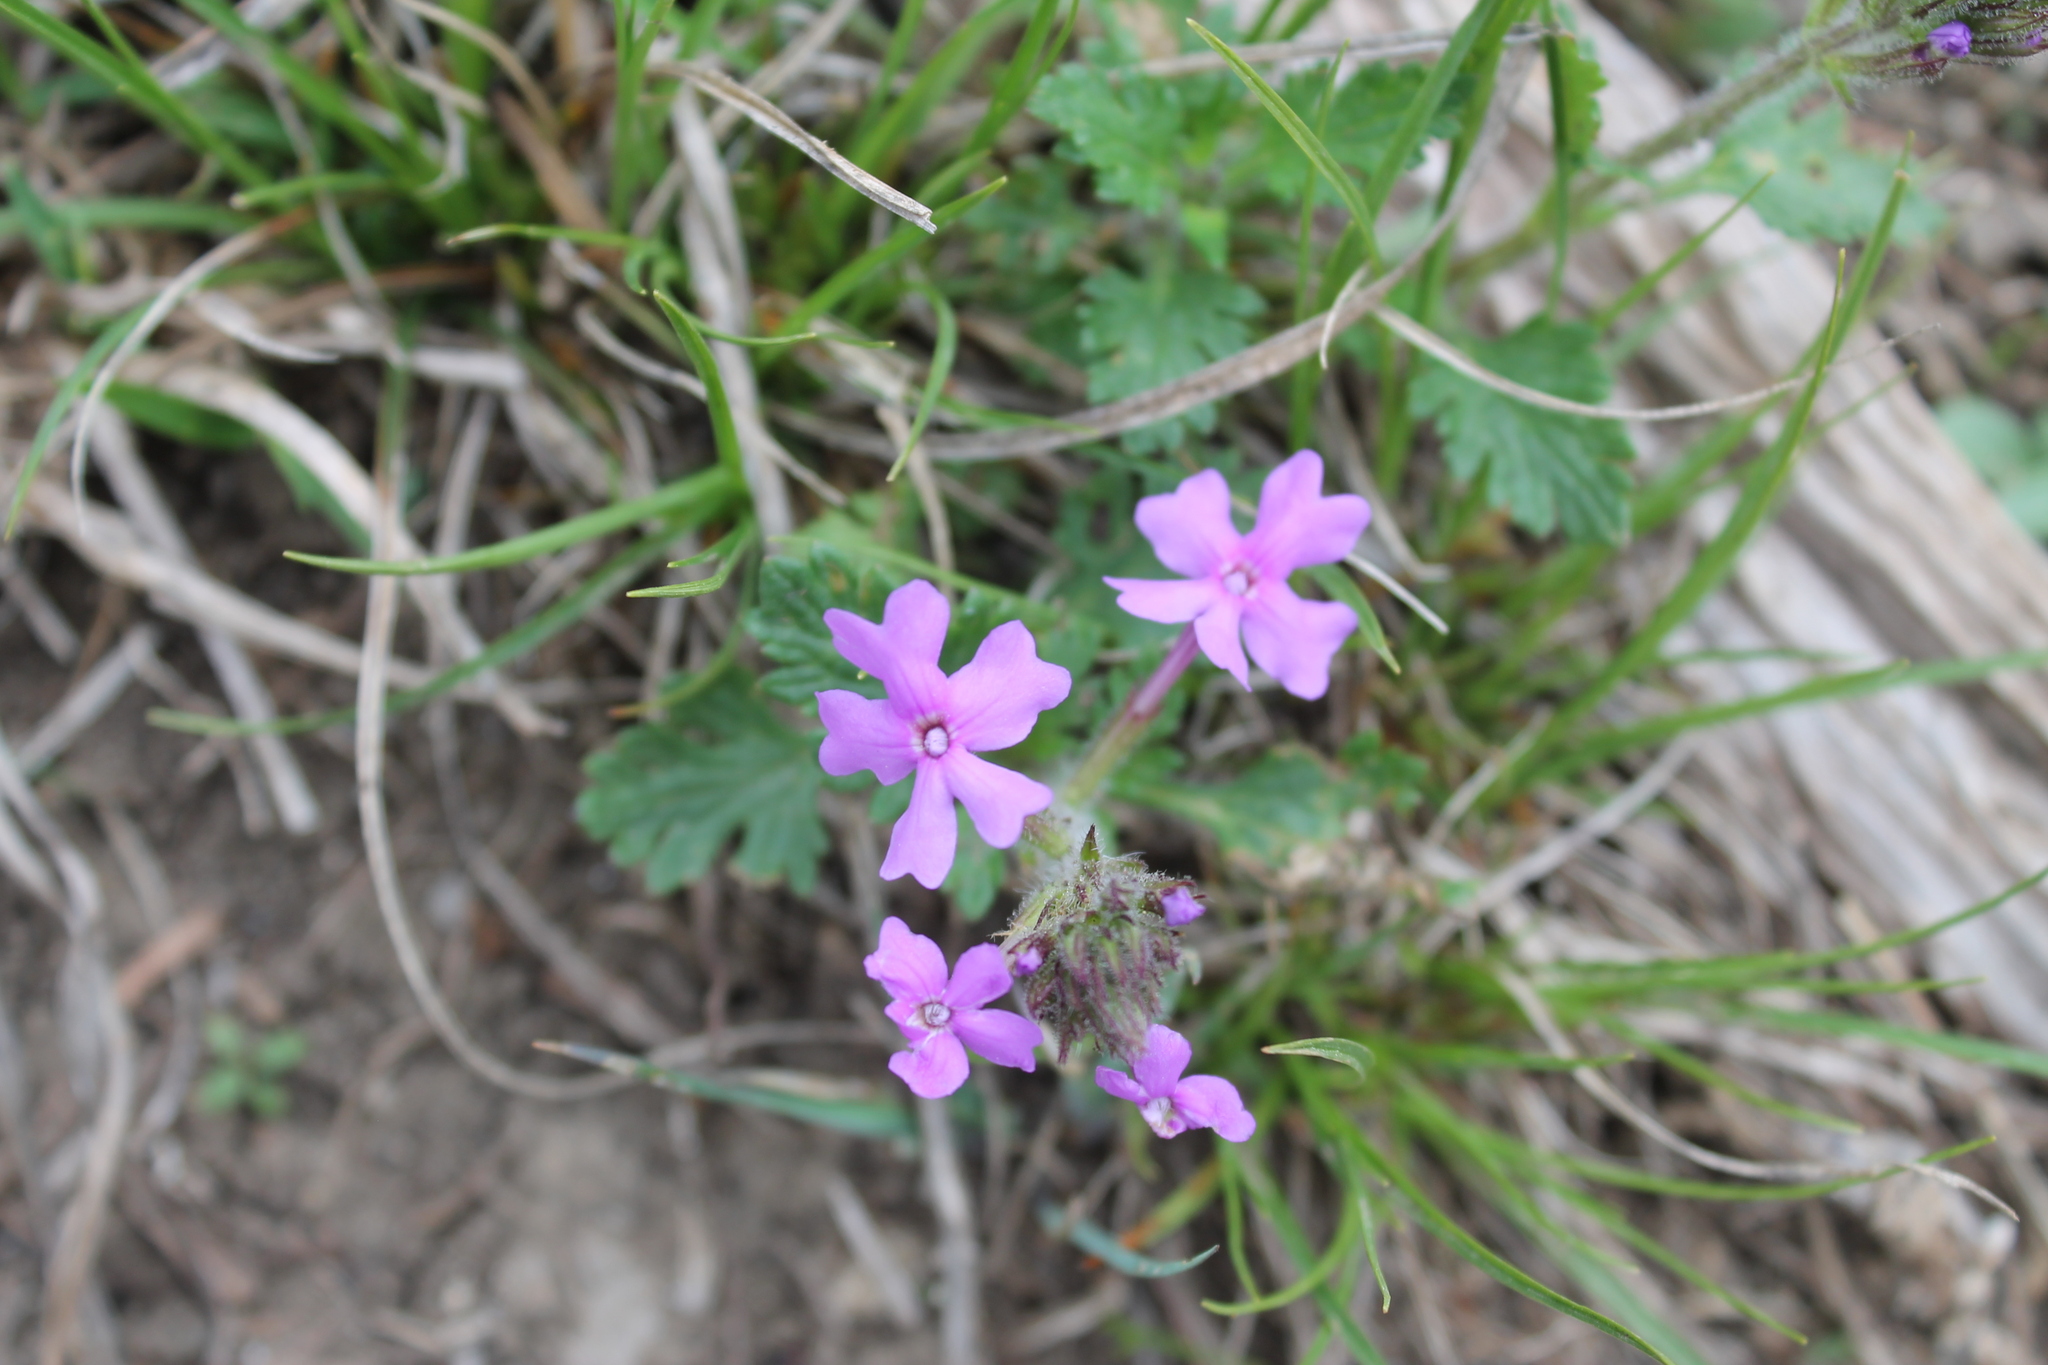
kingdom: Plantae
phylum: Tracheophyta
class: Magnoliopsida
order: Lamiales
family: Verbenaceae
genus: Verbena
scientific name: Verbena canadensis
